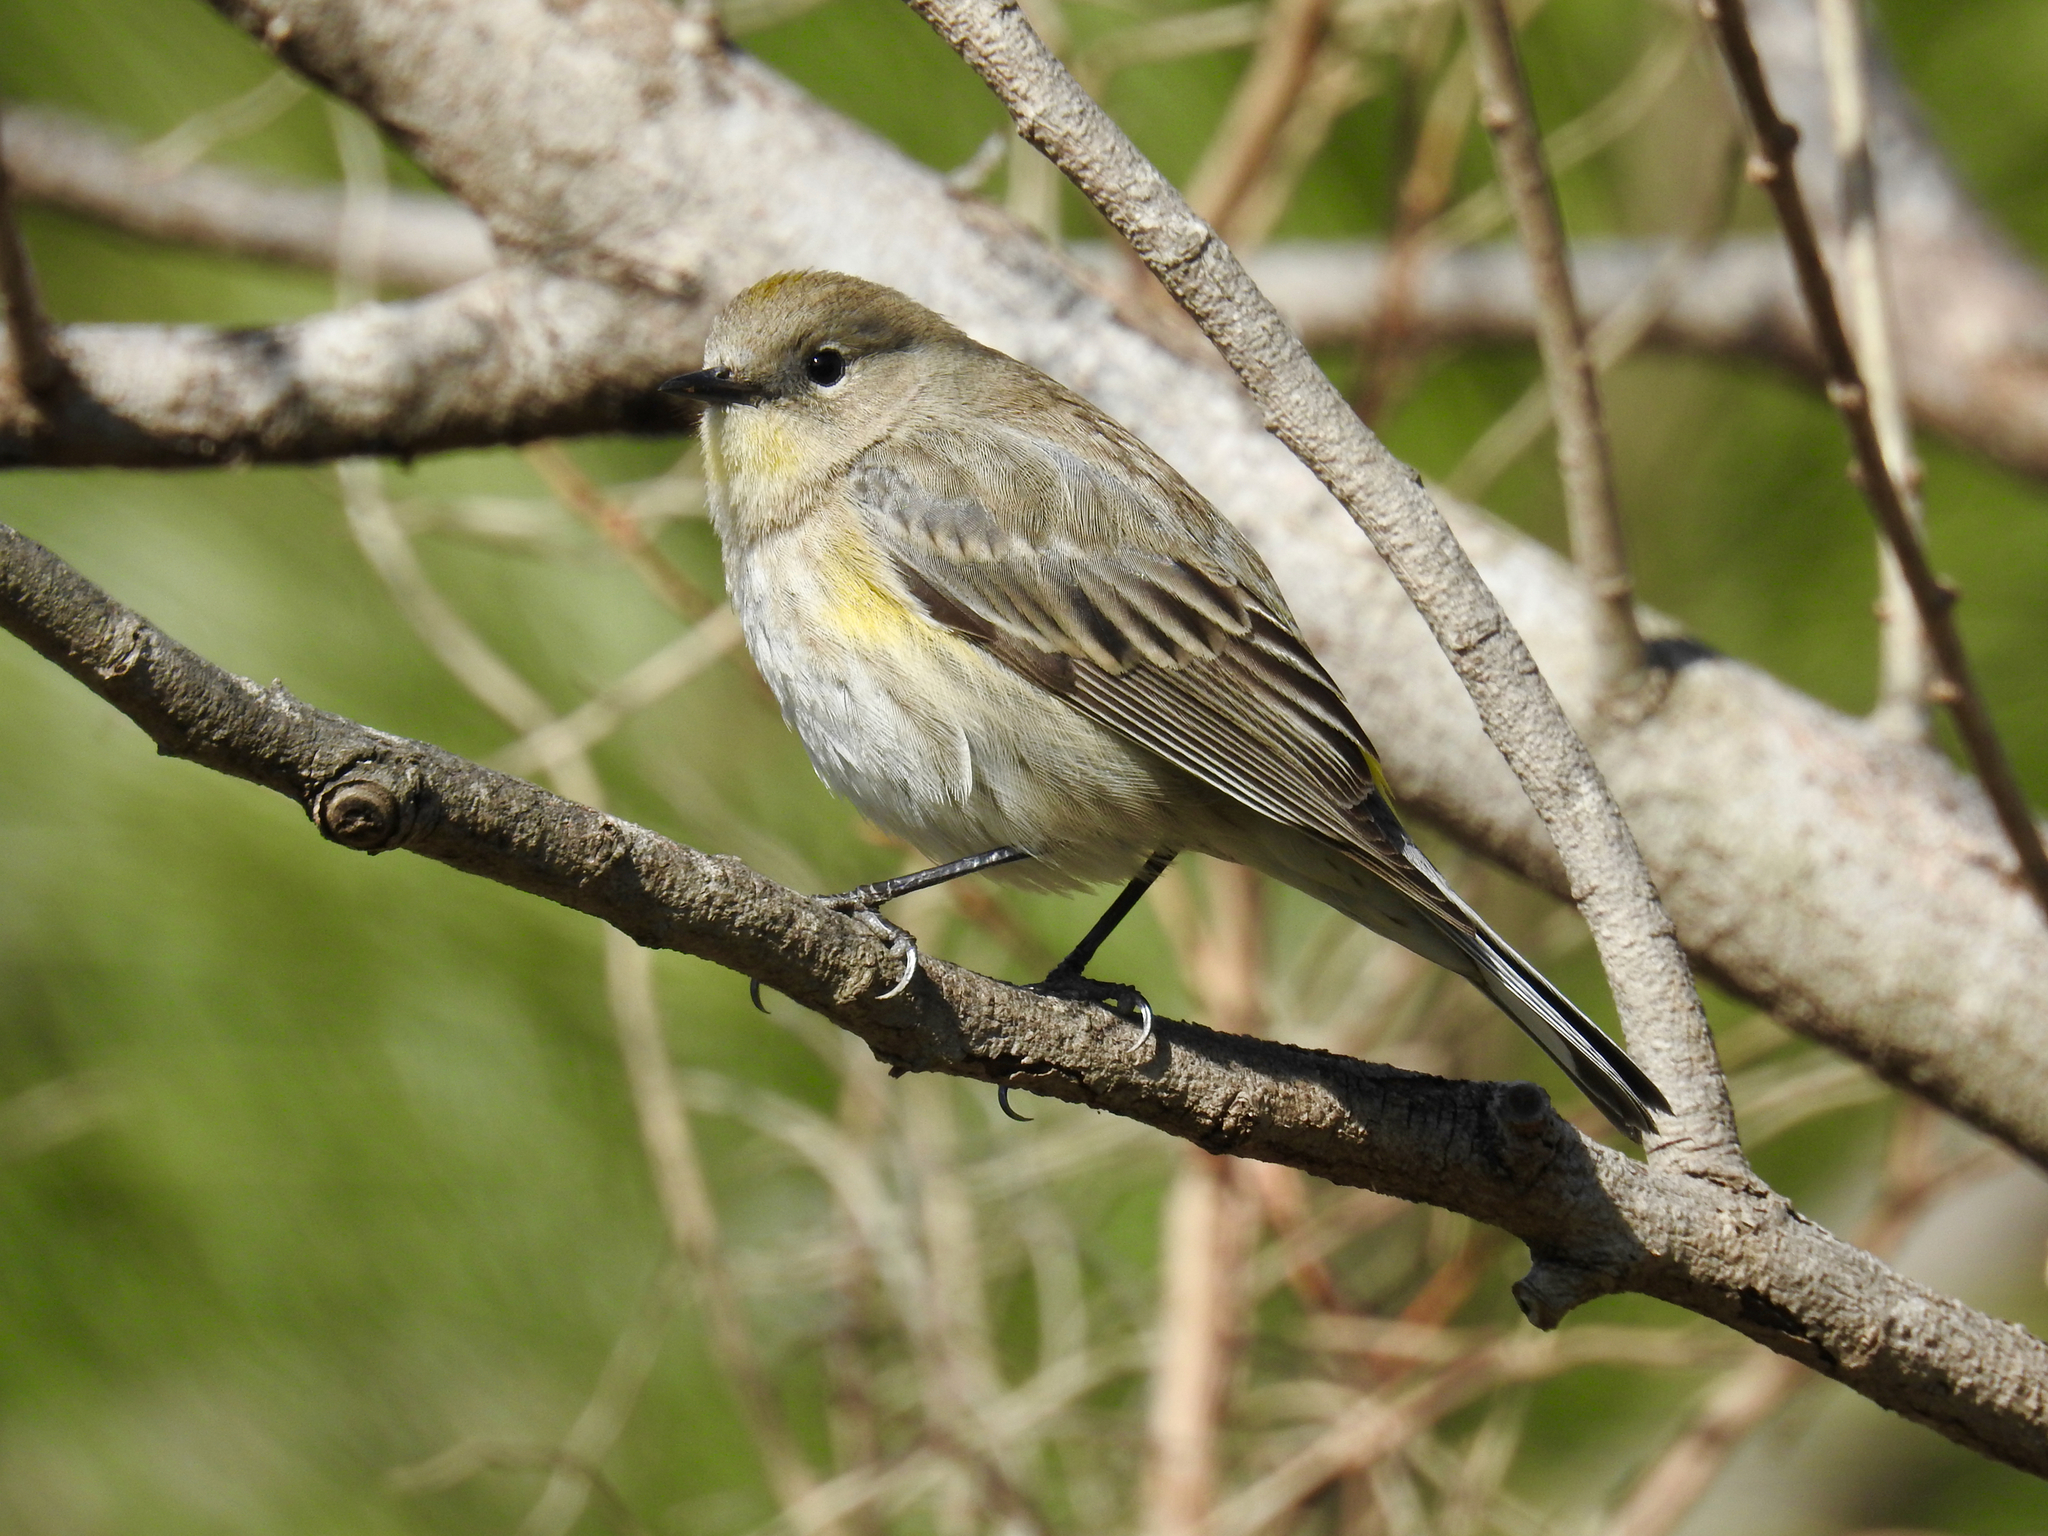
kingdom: Animalia
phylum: Chordata
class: Aves
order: Passeriformes
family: Parulidae
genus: Setophaga
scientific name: Setophaga coronata
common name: Myrtle warbler
